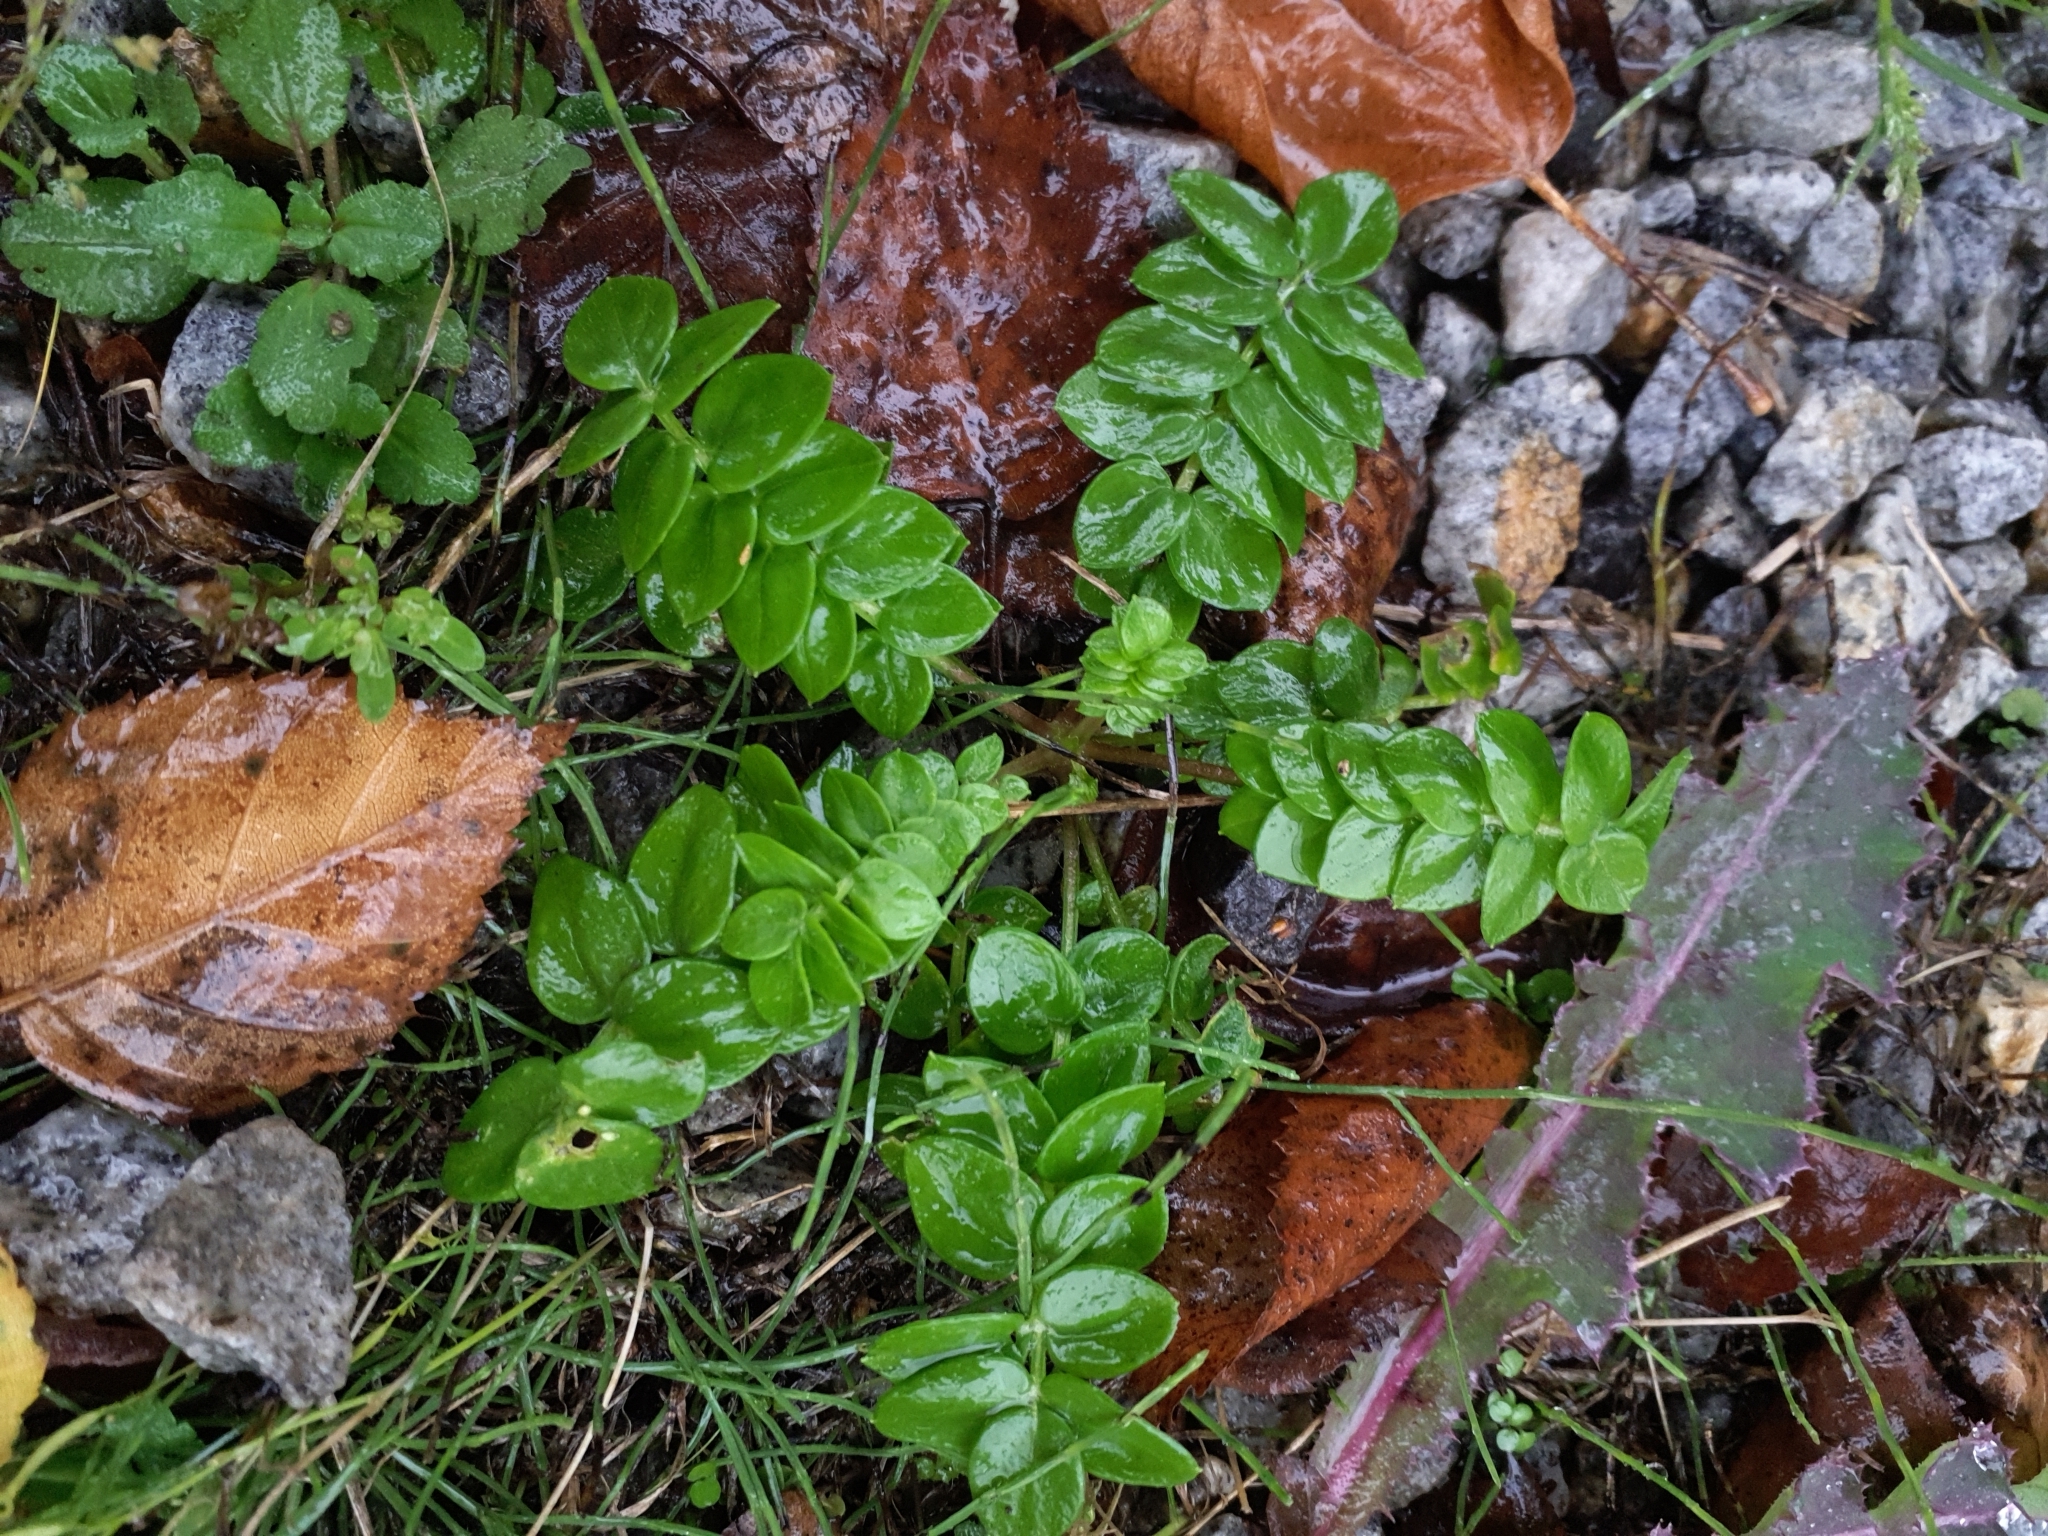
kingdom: Plantae
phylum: Tracheophyta
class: Magnoliopsida
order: Ericales
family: Polemoniaceae
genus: Polemonium
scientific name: Polemonium caeruleum
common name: Jacob's-ladder
